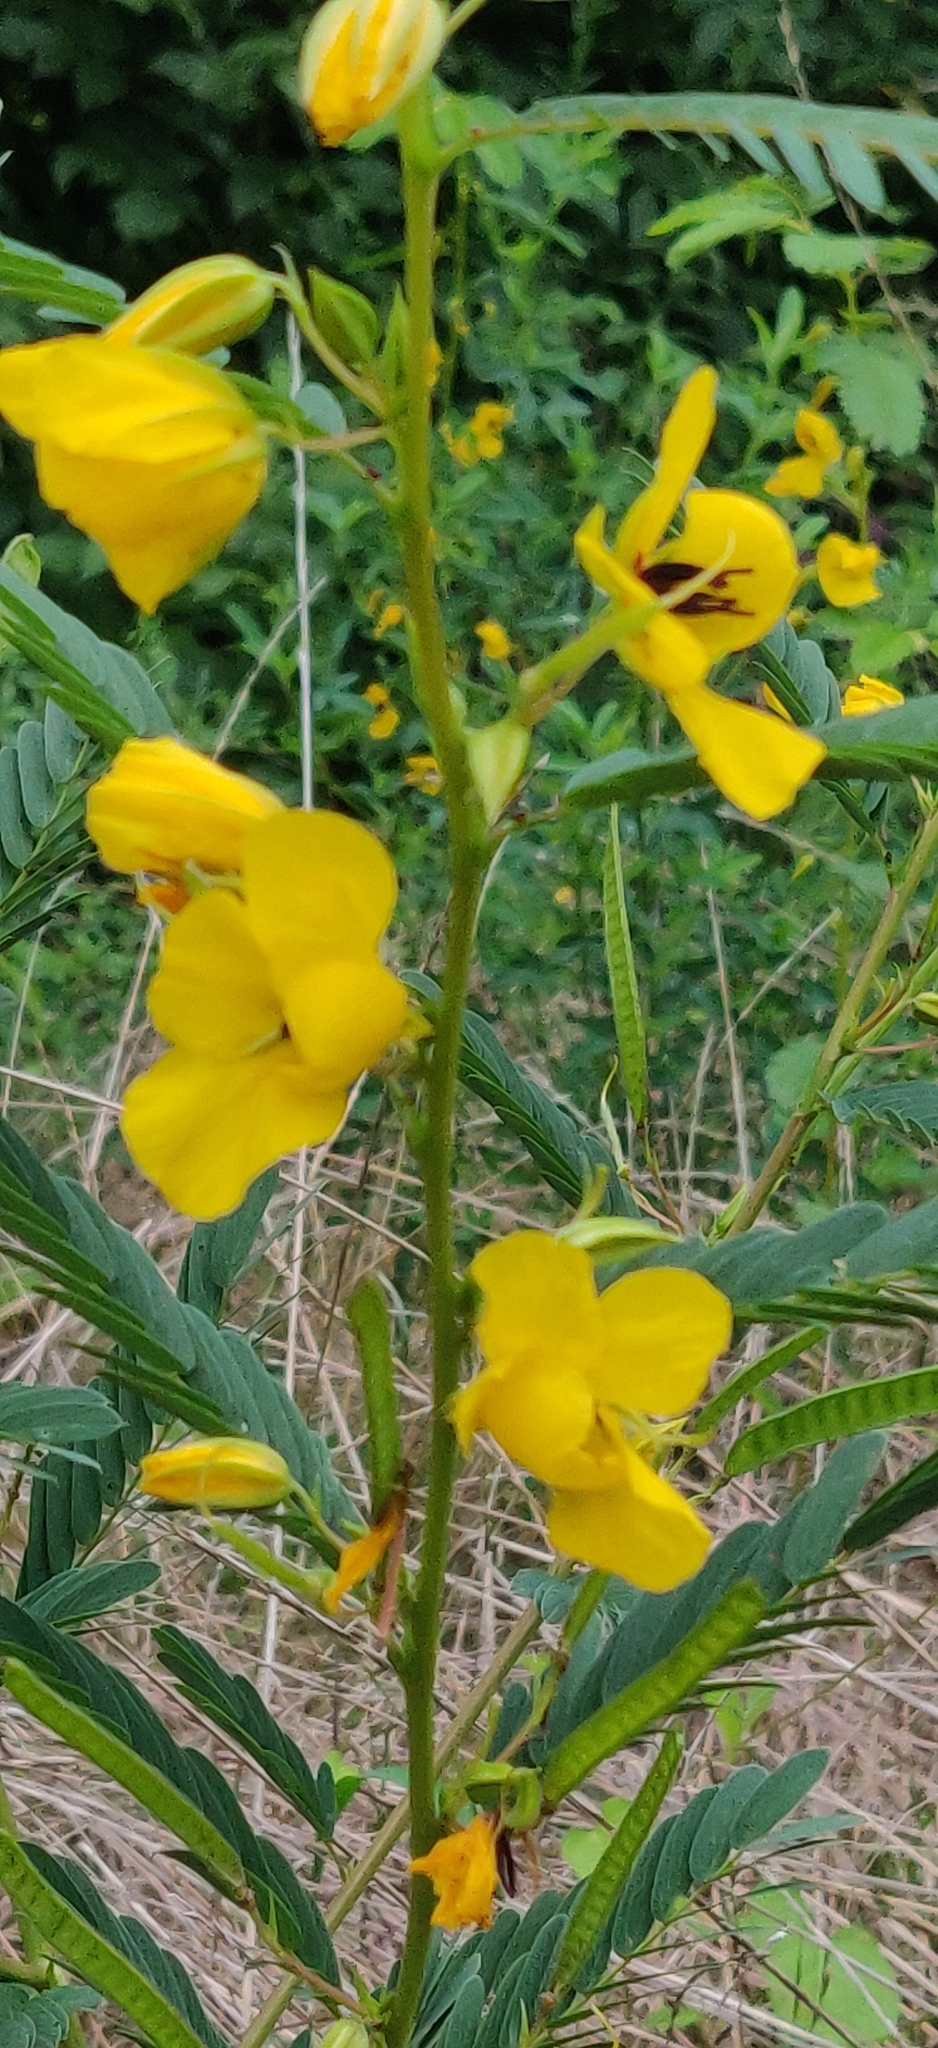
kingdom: Plantae
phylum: Tracheophyta
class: Magnoliopsida
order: Fabales
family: Fabaceae
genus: Chamaecrista
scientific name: Chamaecrista fasciculata
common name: Golden cassia
